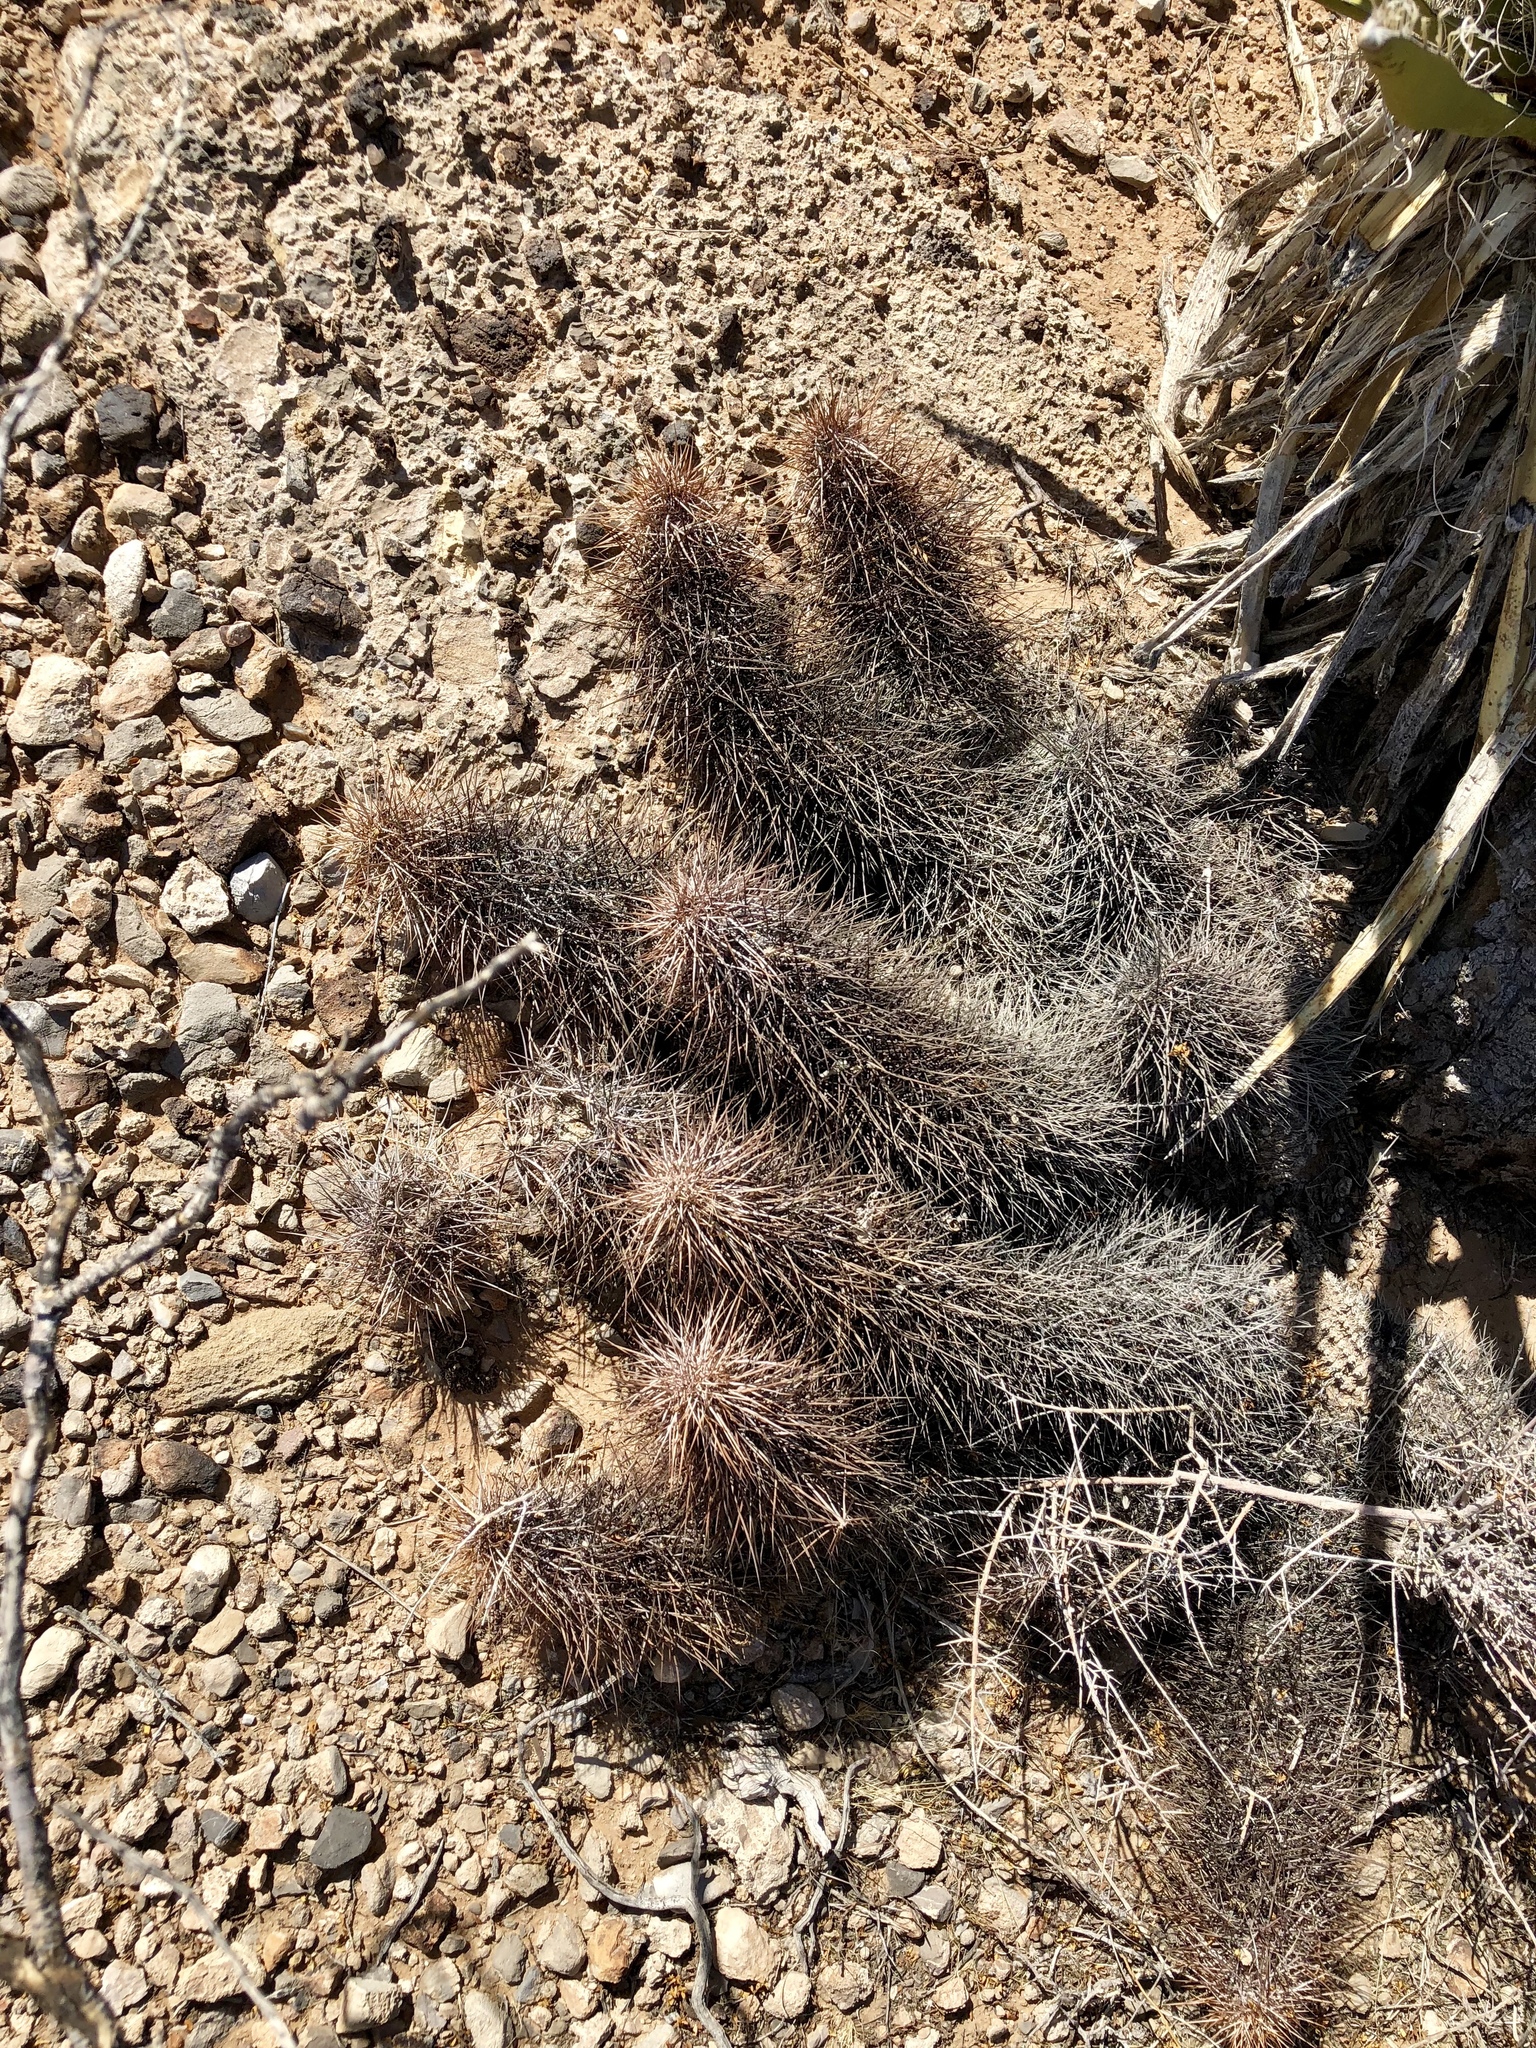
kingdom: Plantae
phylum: Tracheophyta
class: Magnoliopsida
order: Caryophyllales
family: Cactaceae
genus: Echinocereus
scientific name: Echinocereus engelmannii
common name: Engelmann's hedgehog cactus
